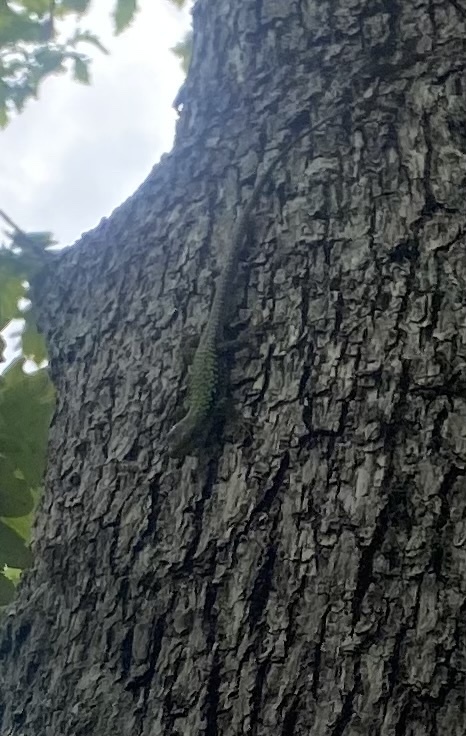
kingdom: Animalia
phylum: Chordata
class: Squamata
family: Lacertidae
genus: Darevskia
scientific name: Darevskia brauneri
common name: Brauner's rock lizard
